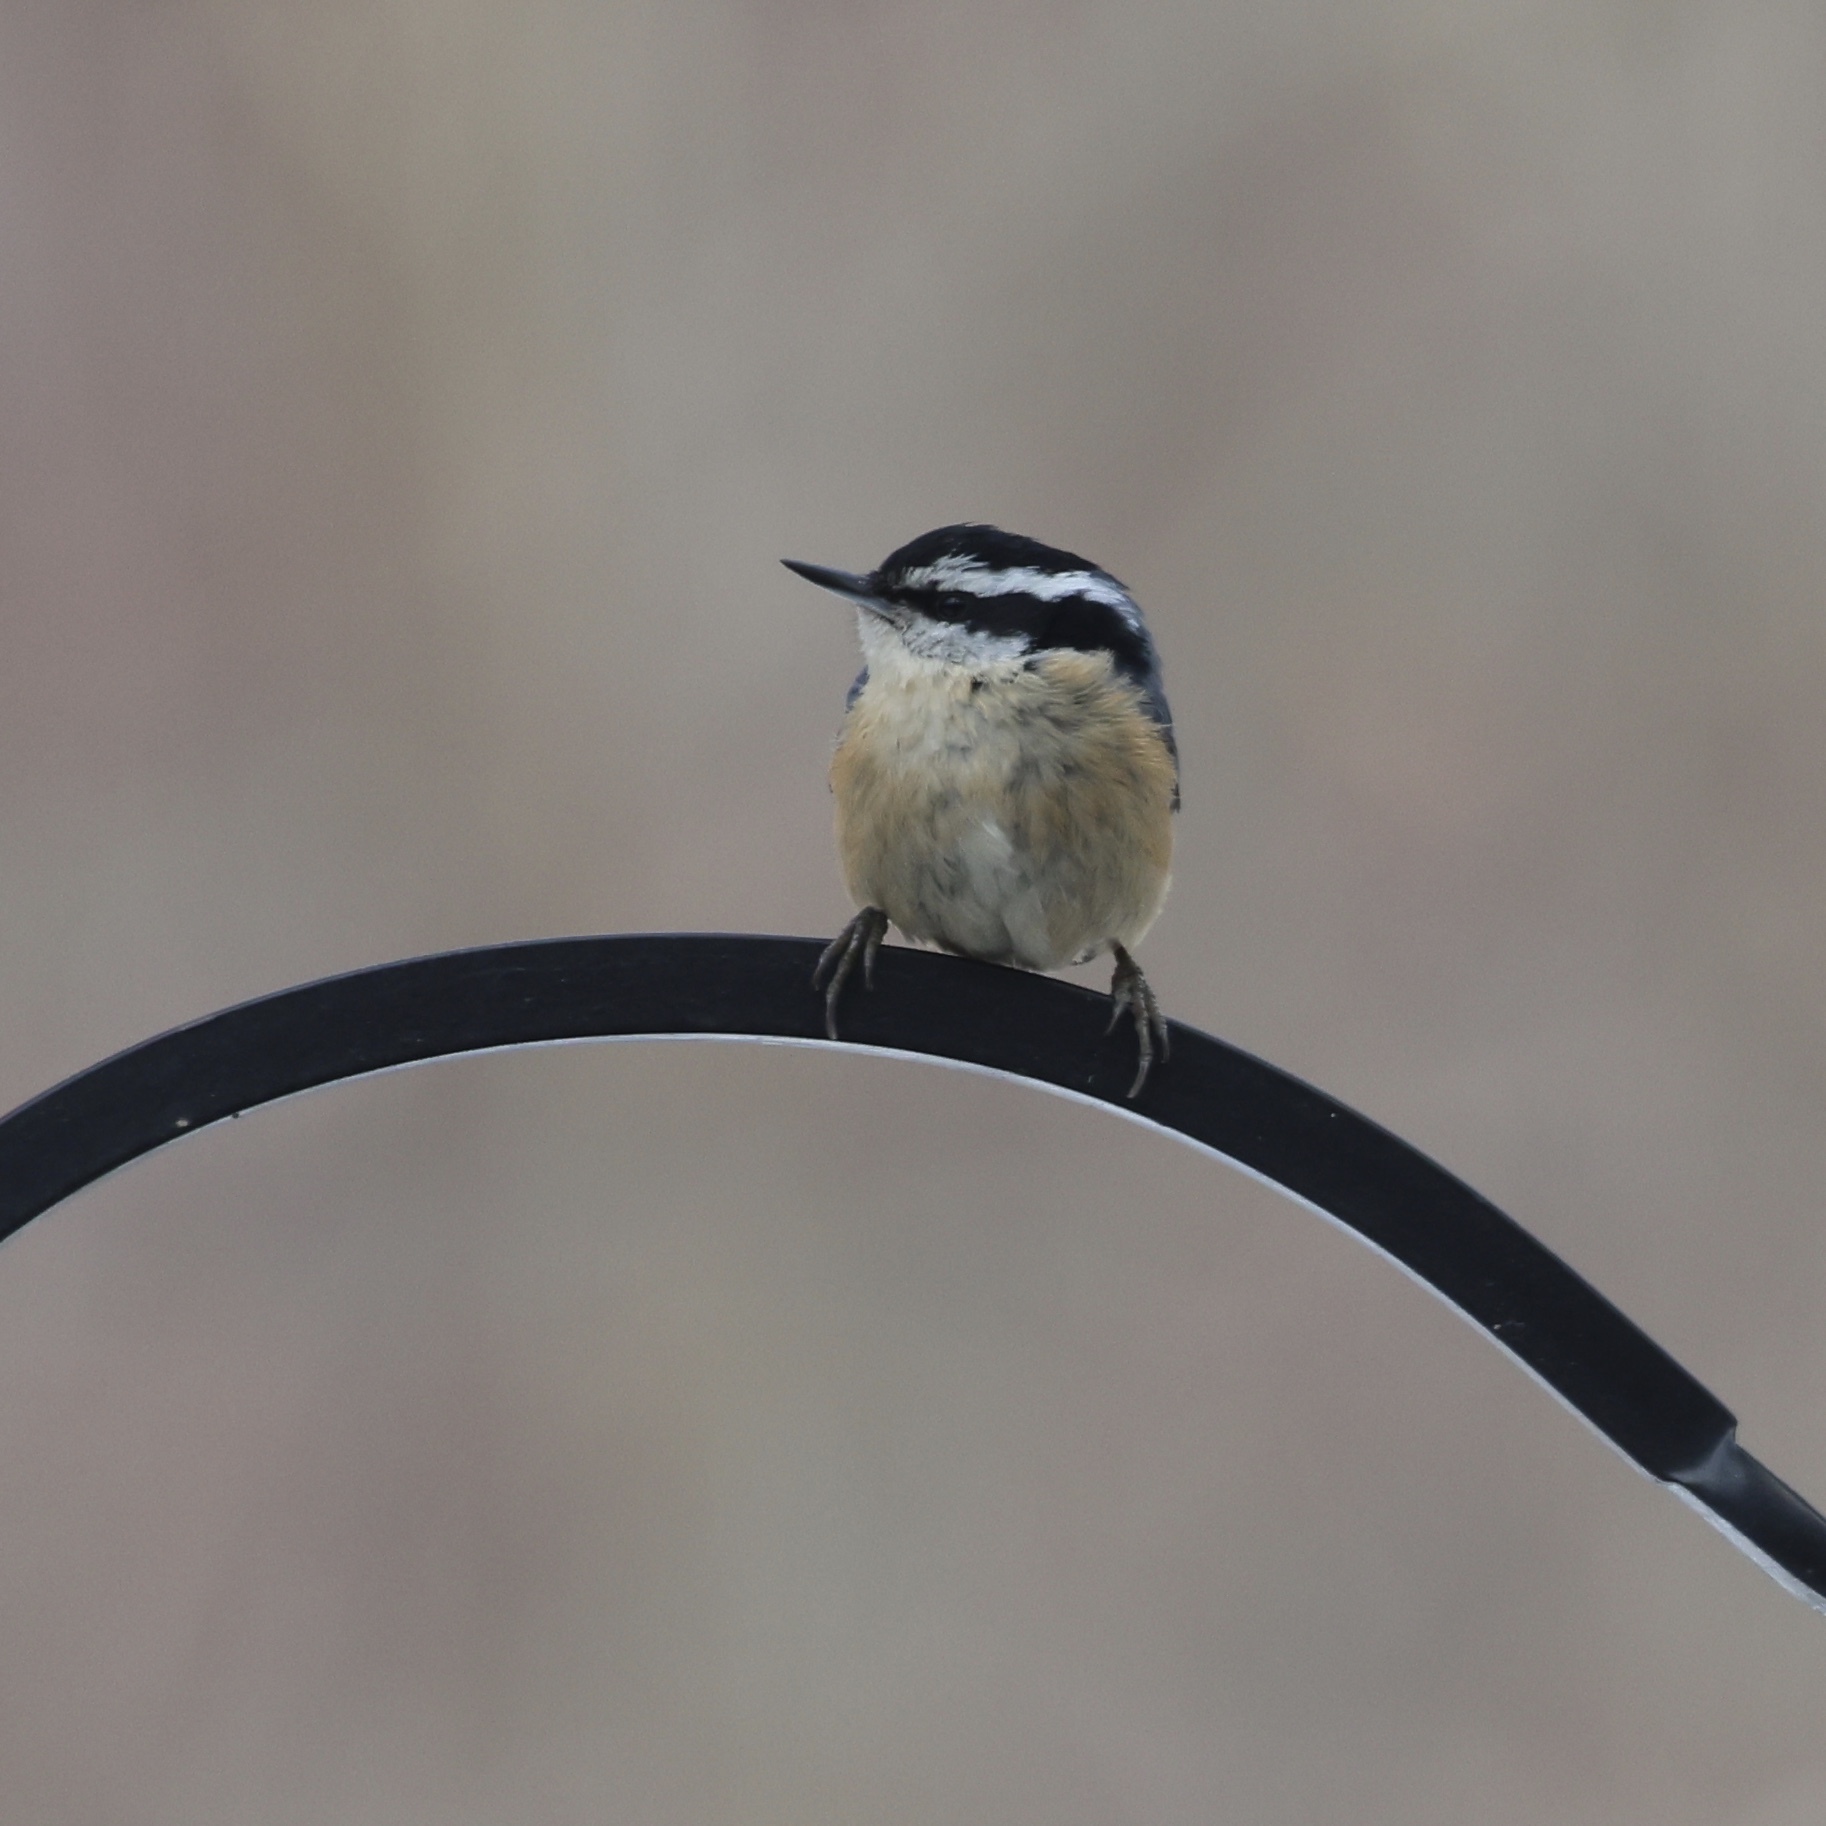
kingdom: Animalia
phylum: Chordata
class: Aves
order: Passeriformes
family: Sittidae
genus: Sitta
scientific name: Sitta canadensis
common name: Red-breasted nuthatch
